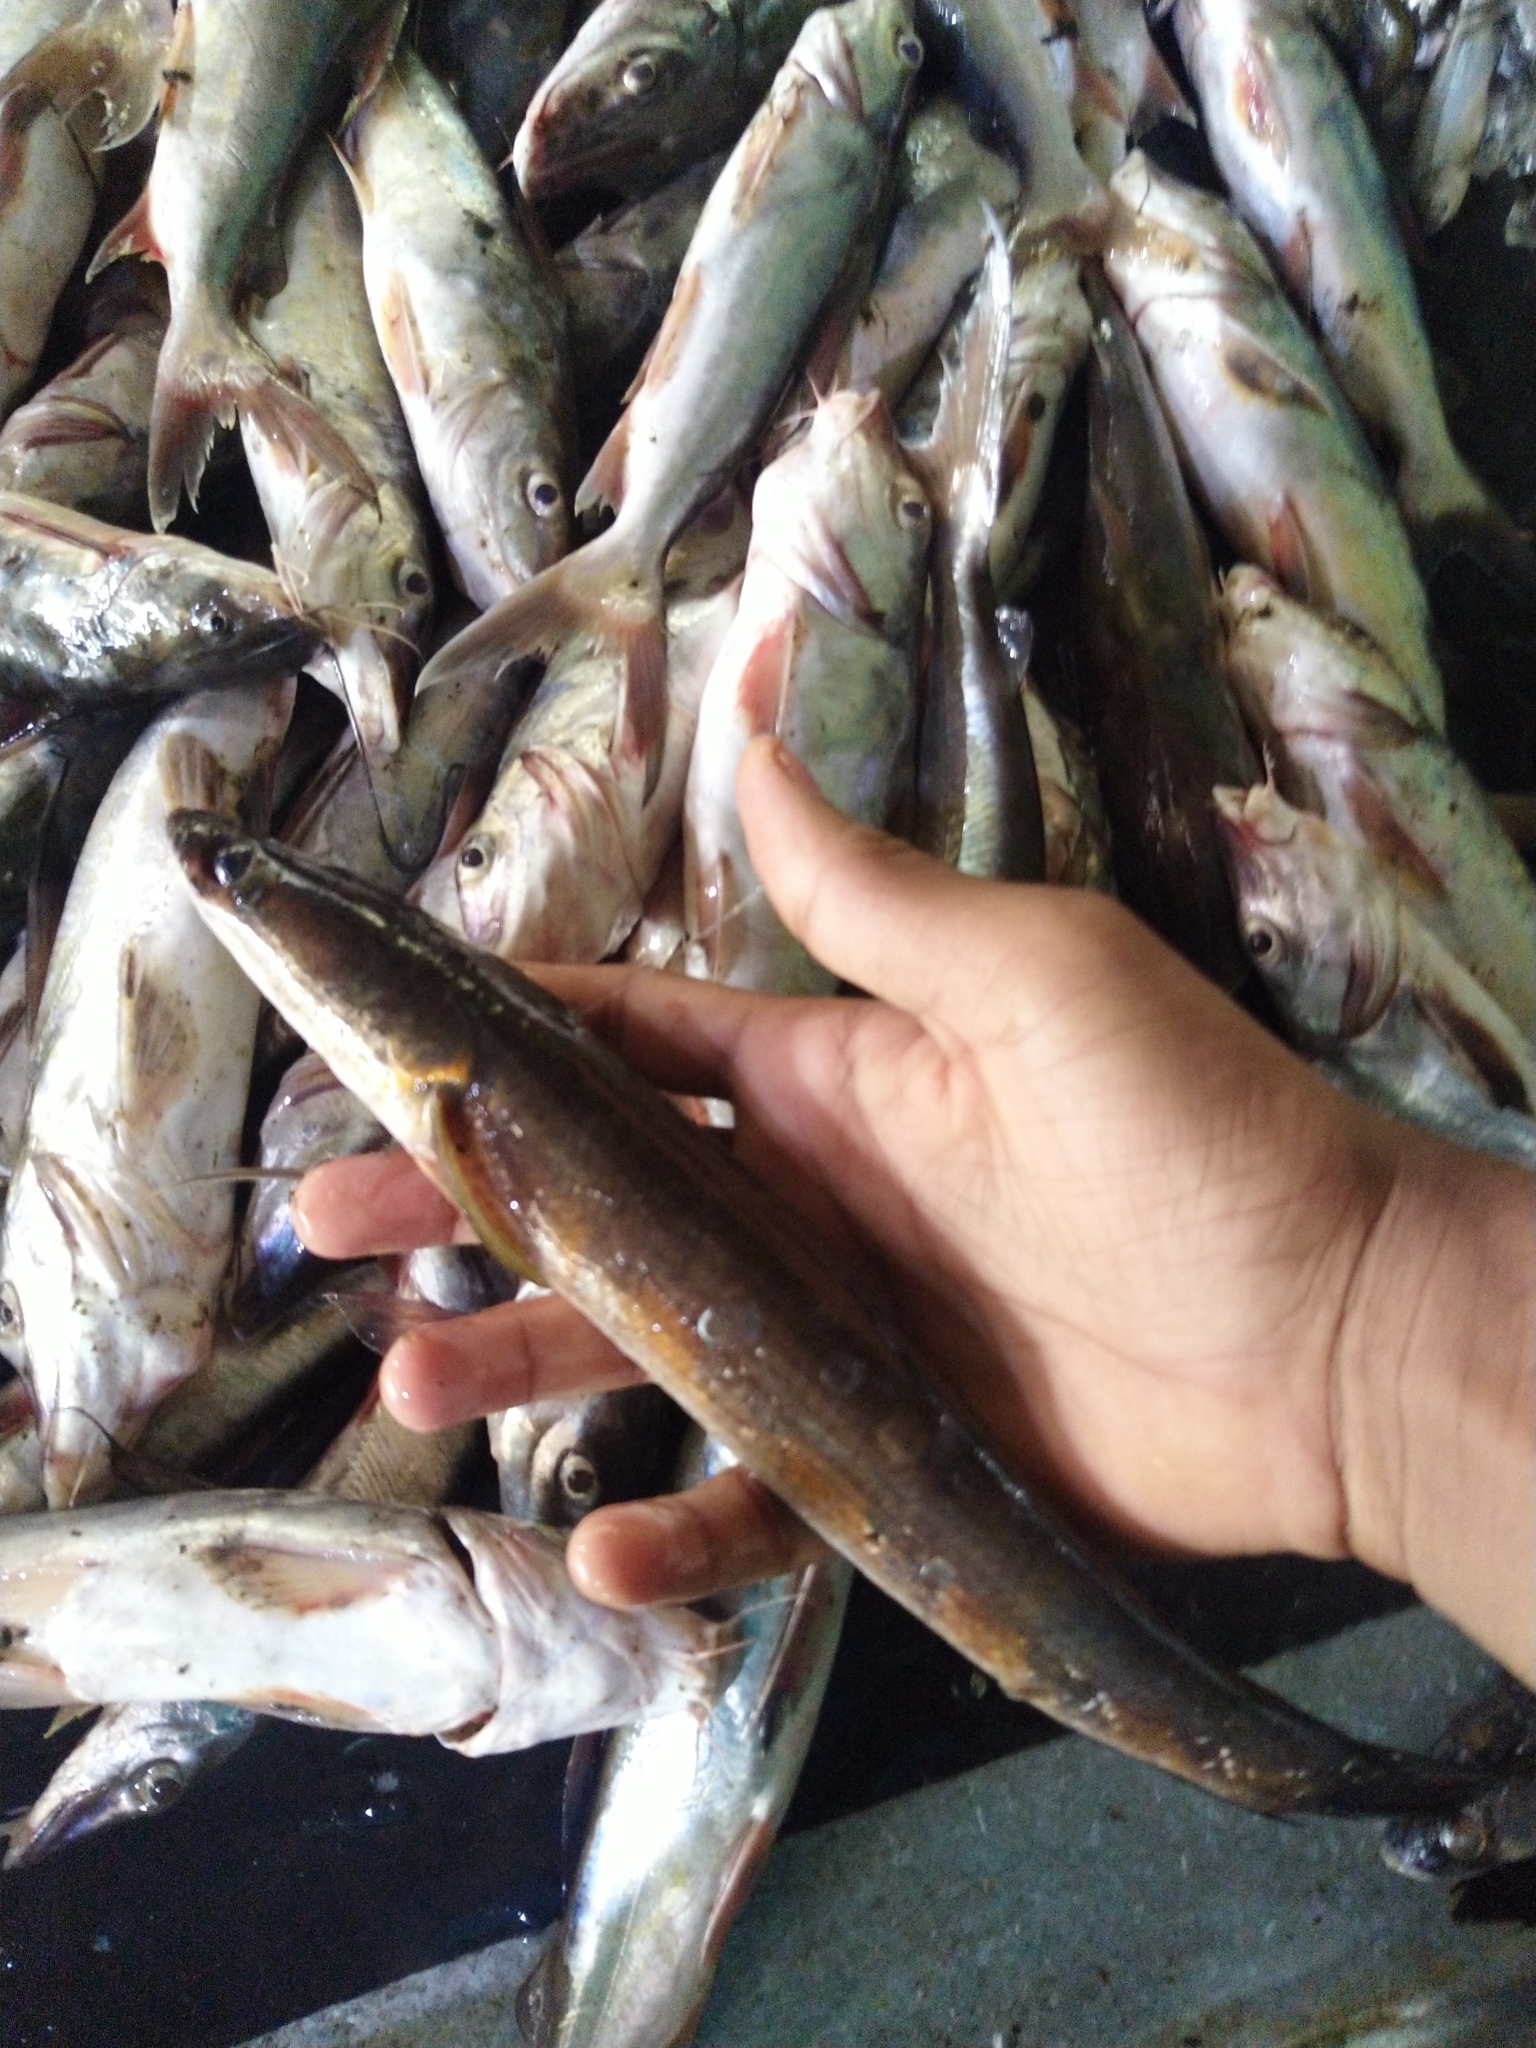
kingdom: Animalia
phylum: Chordata
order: Perciformes
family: Channidae
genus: Channa
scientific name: Channa marulius
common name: Giant snakehead
